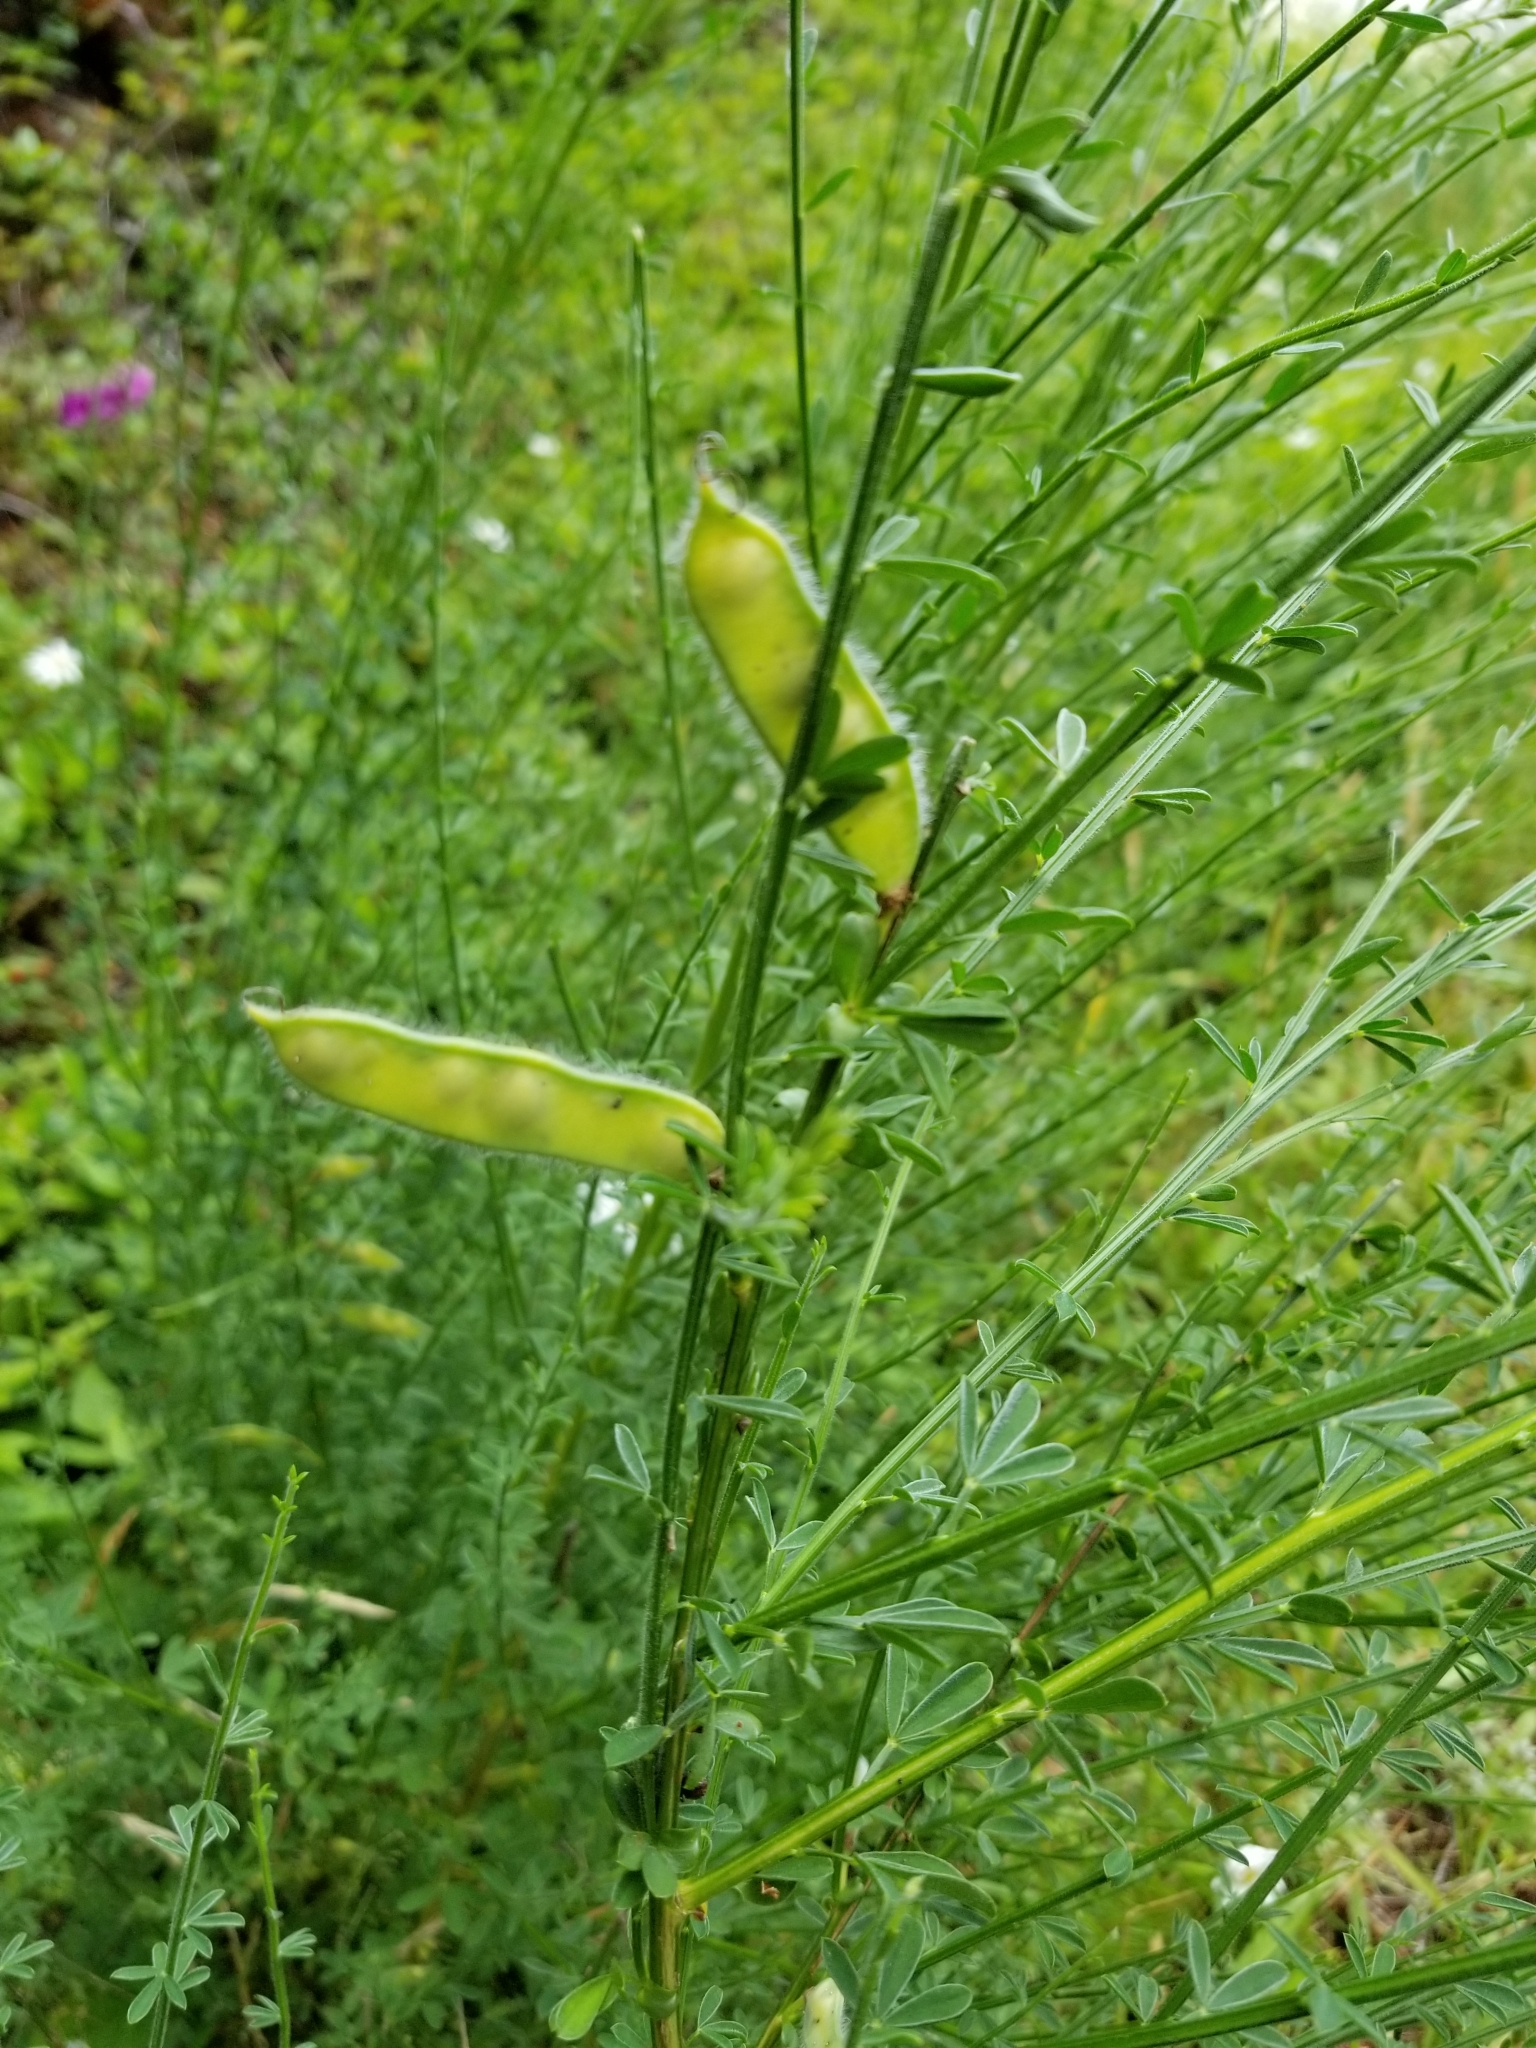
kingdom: Plantae
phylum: Tracheophyta
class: Magnoliopsida
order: Fabales
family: Fabaceae
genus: Cytisus
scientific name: Cytisus scoparius
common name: Scotch broom
